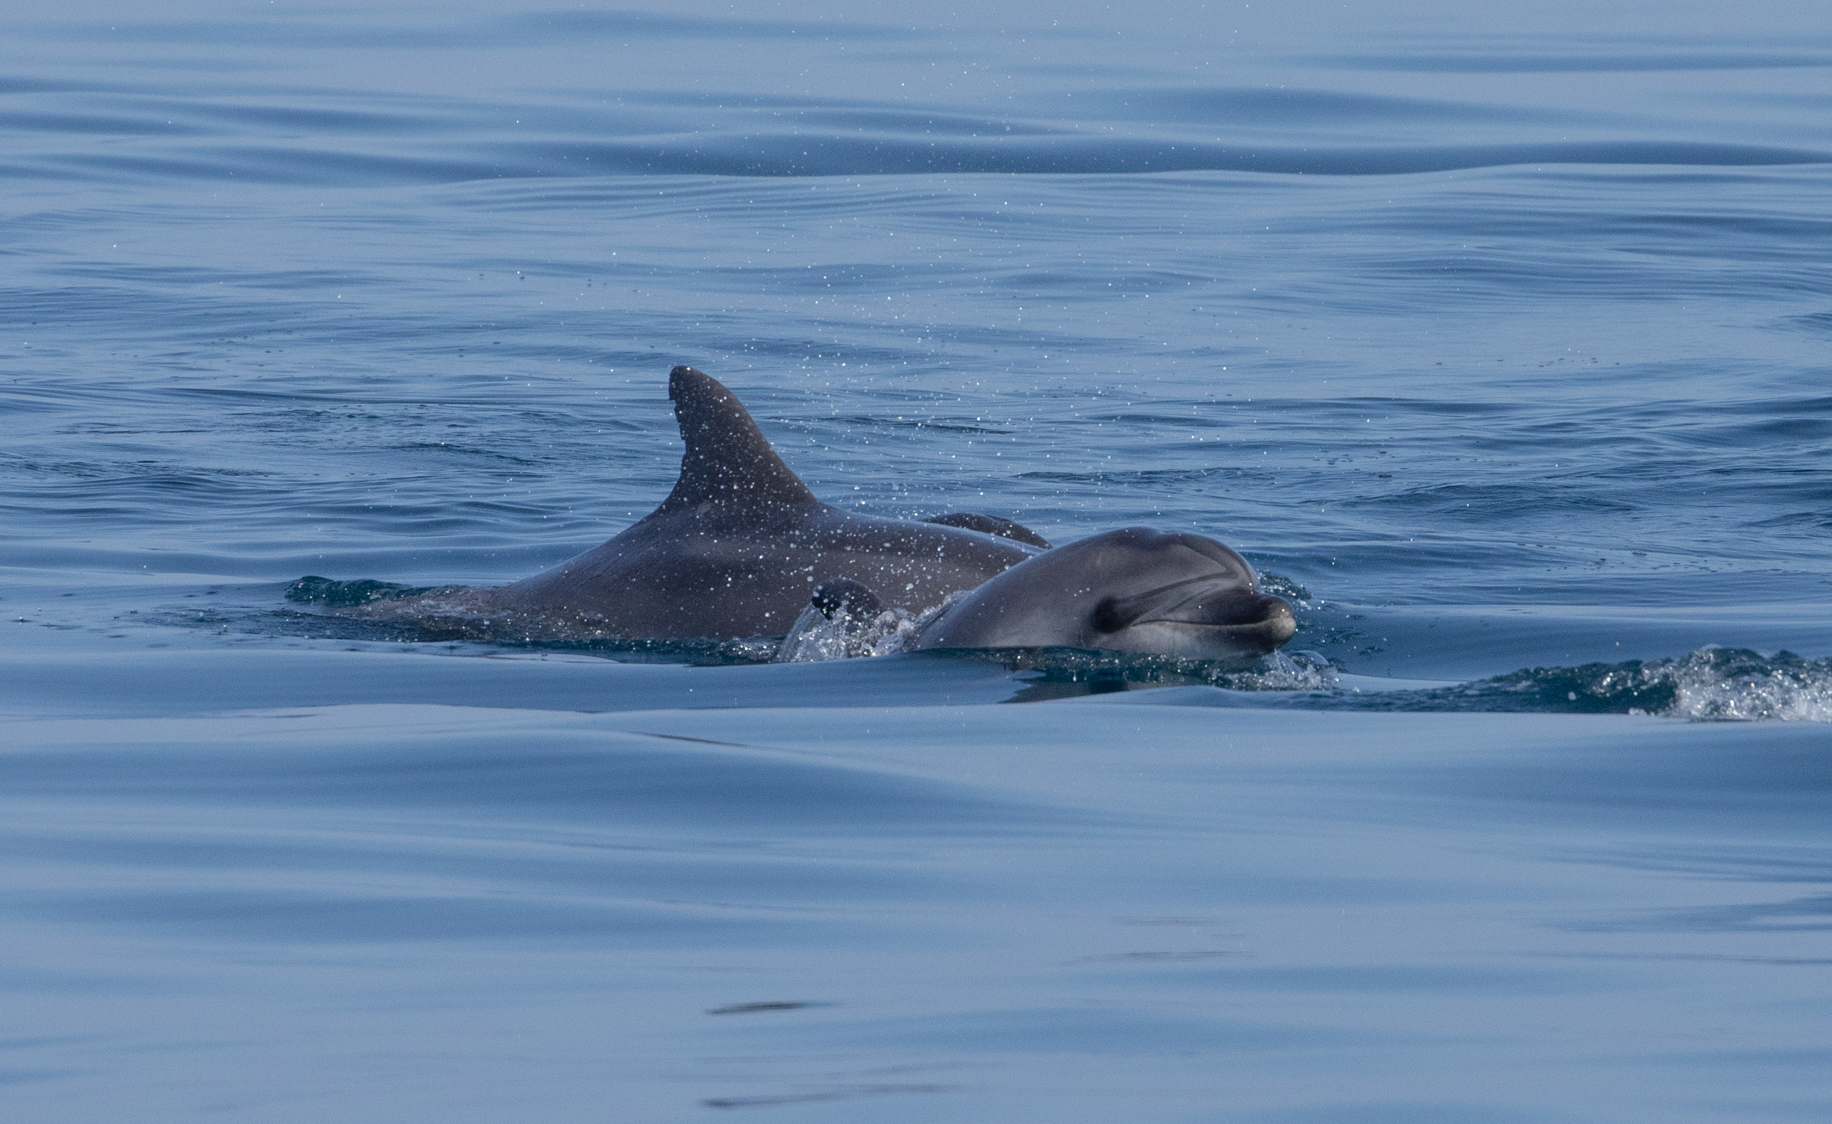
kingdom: Animalia
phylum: Chordata
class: Mammalia
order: Cetacea
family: Delphinidae
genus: Tursiops
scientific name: Tursiops truncatus
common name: Bottlenose dolphin
